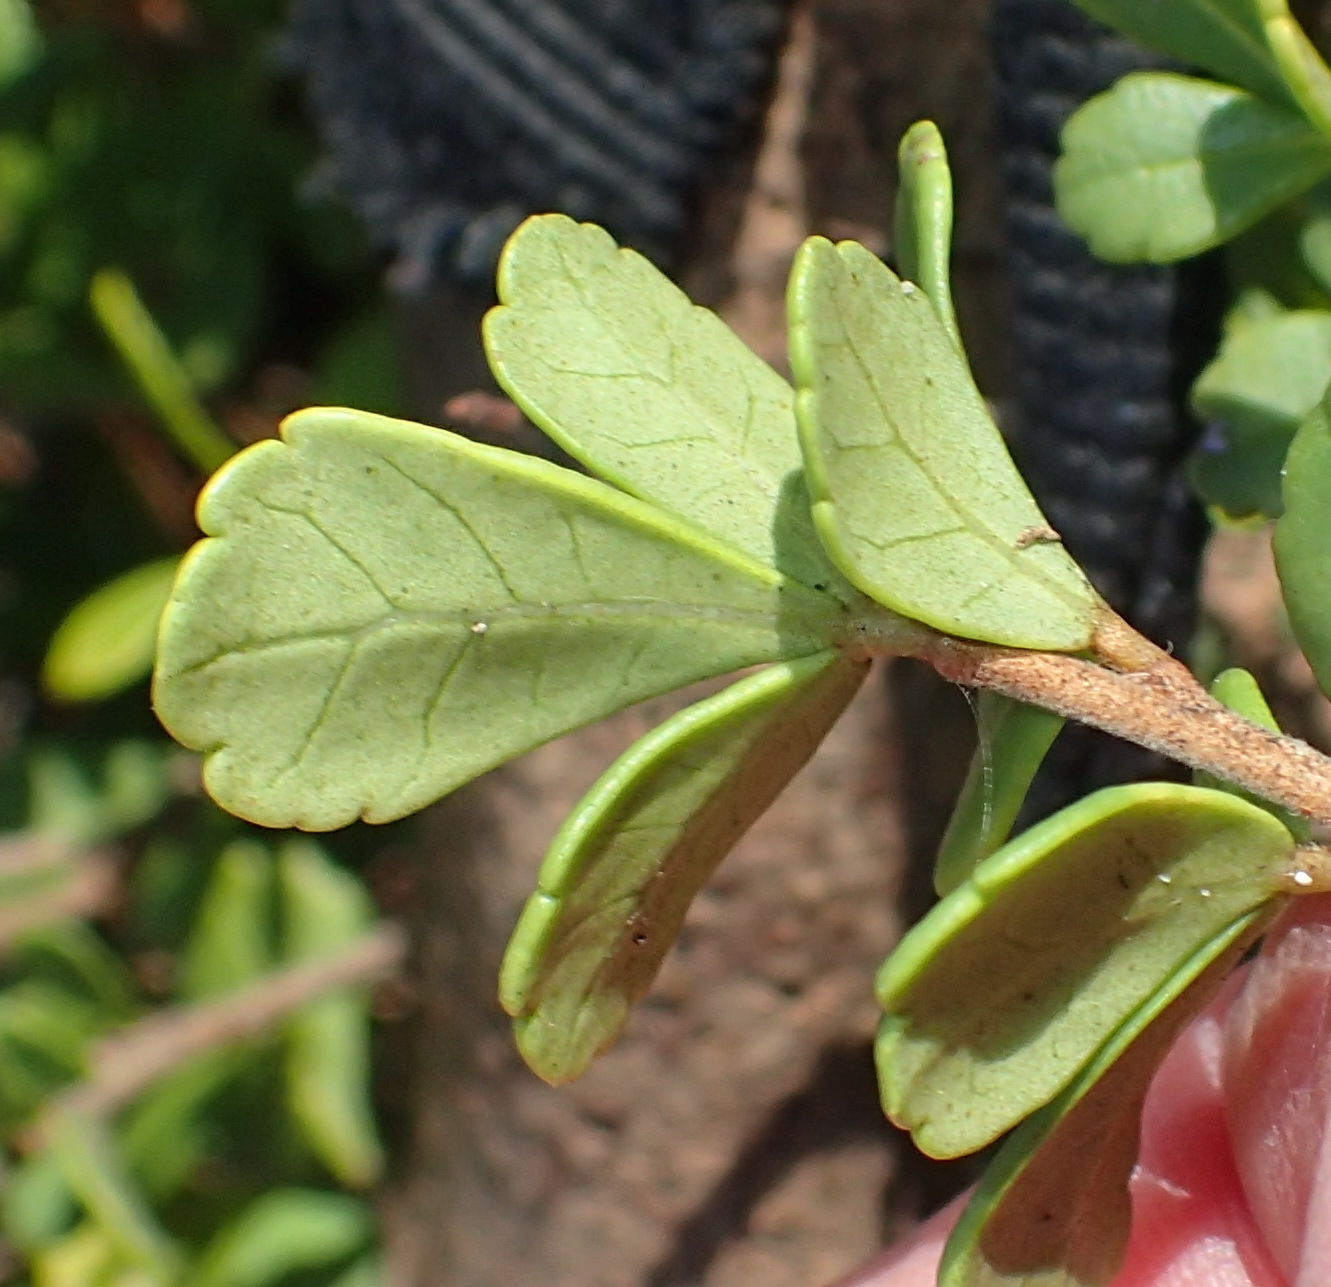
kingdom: Plantae
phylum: Tracheophyta
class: Magnoliopsida
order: Sapindales
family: Anacardiaceae
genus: Searsia
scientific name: Searsia crenata
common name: Crowberry
